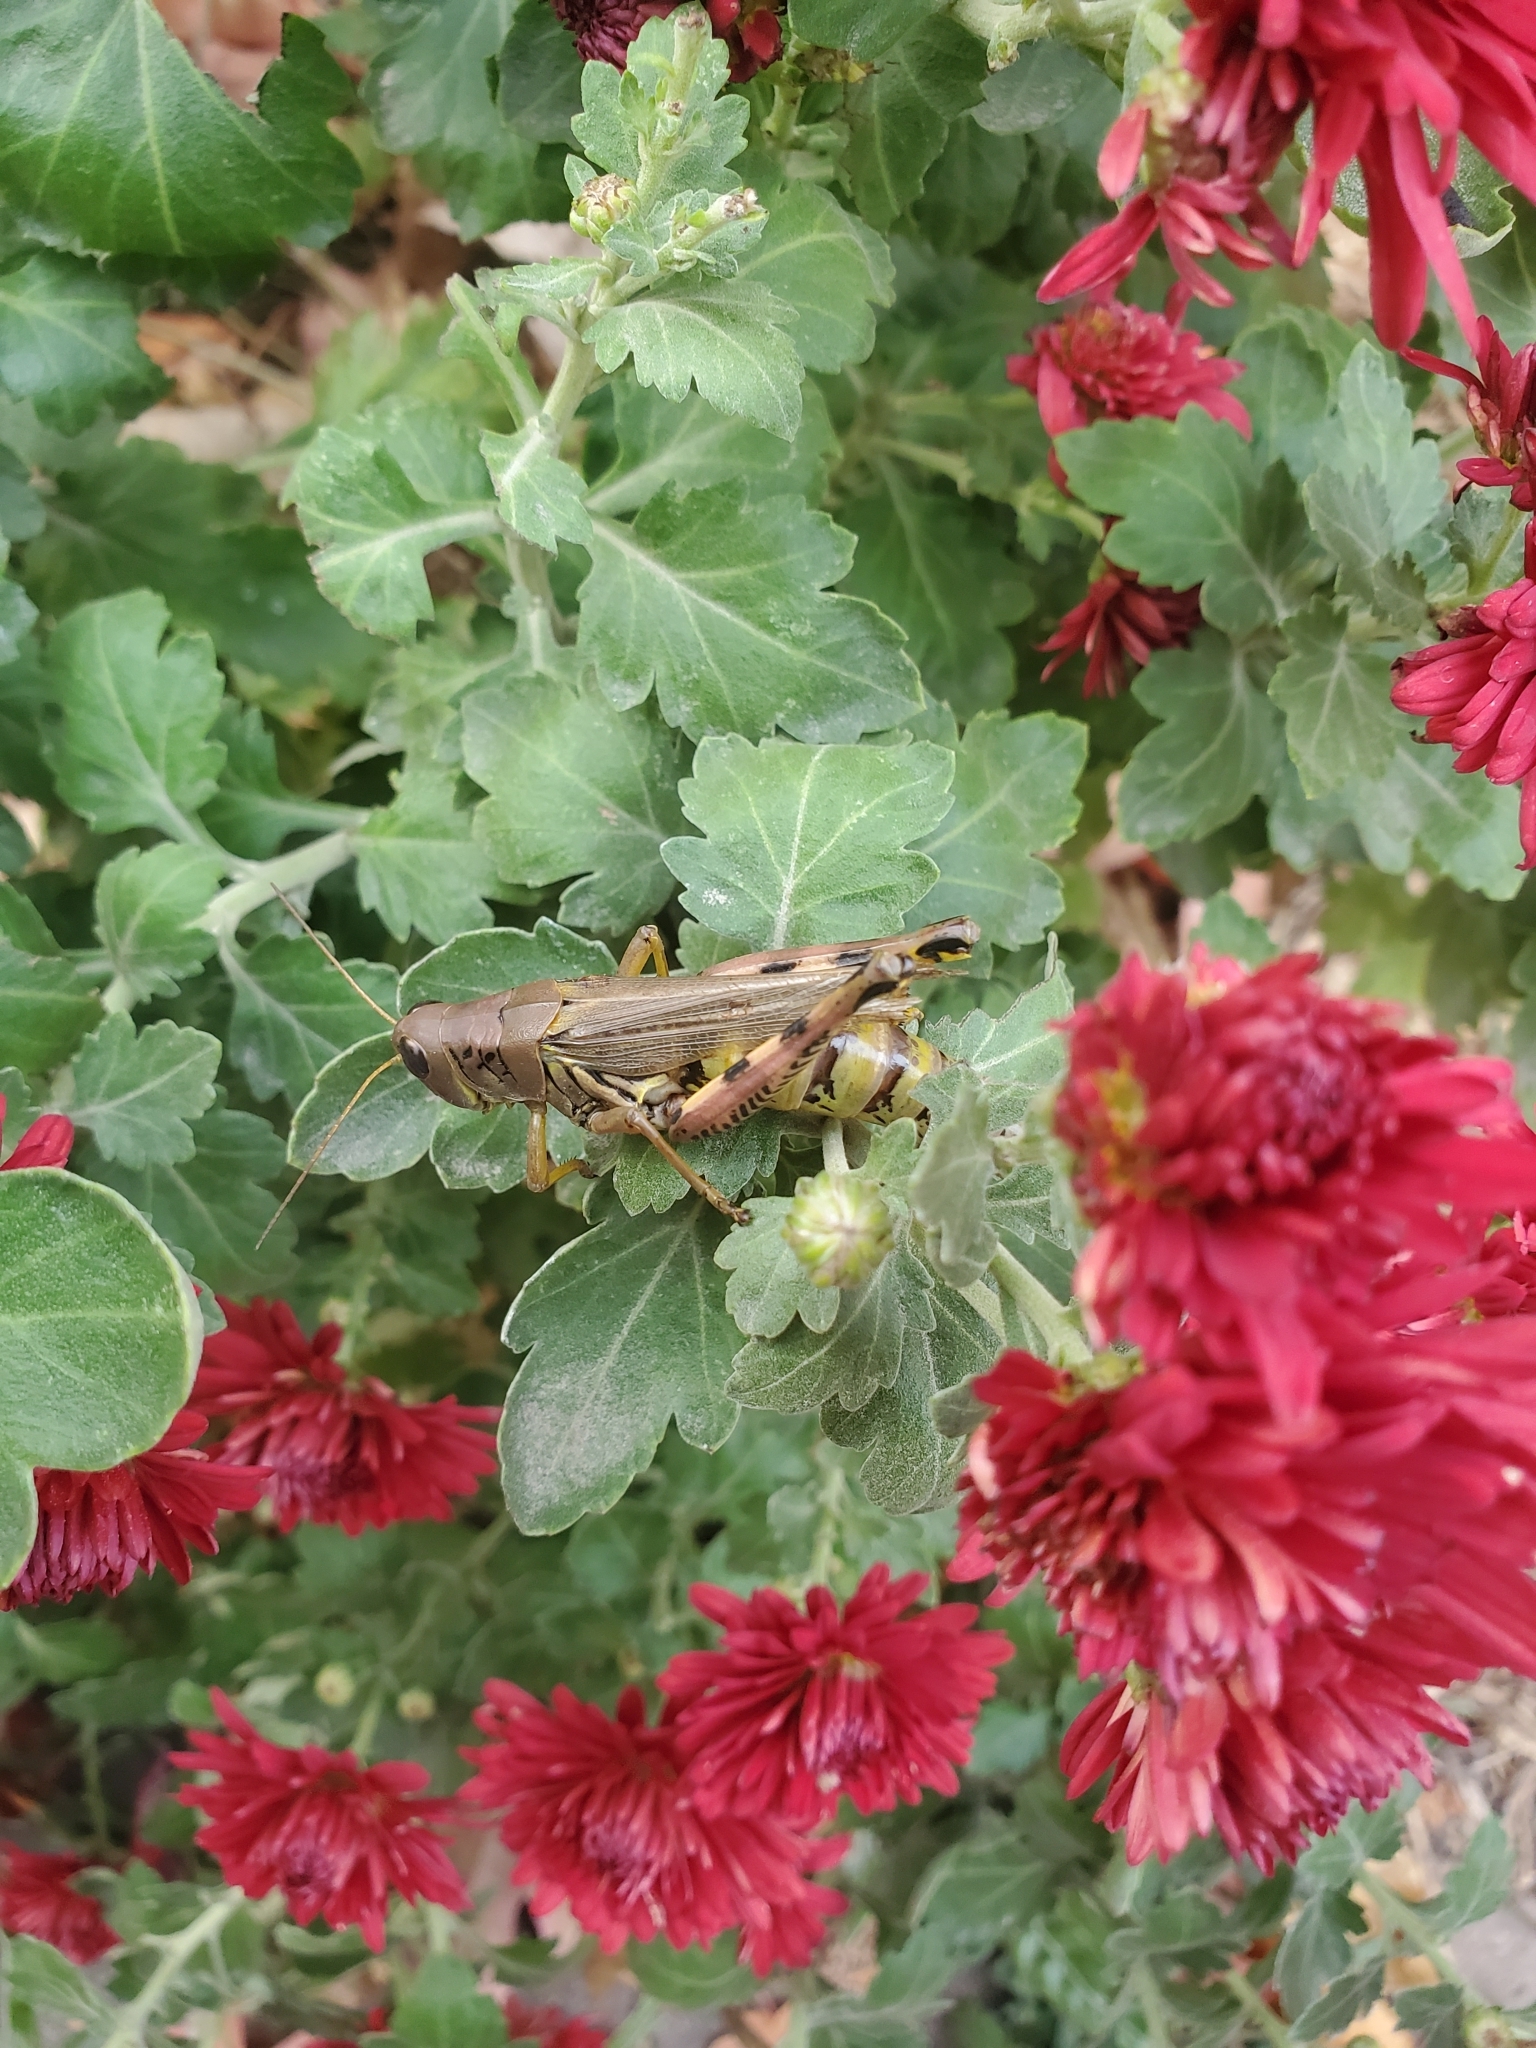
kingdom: Animalia
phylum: Arthropoda
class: Insecta
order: Orthoptera
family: Acrididae
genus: Melanoplus
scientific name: Melanoplus differentialis
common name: Differential grasshopper
